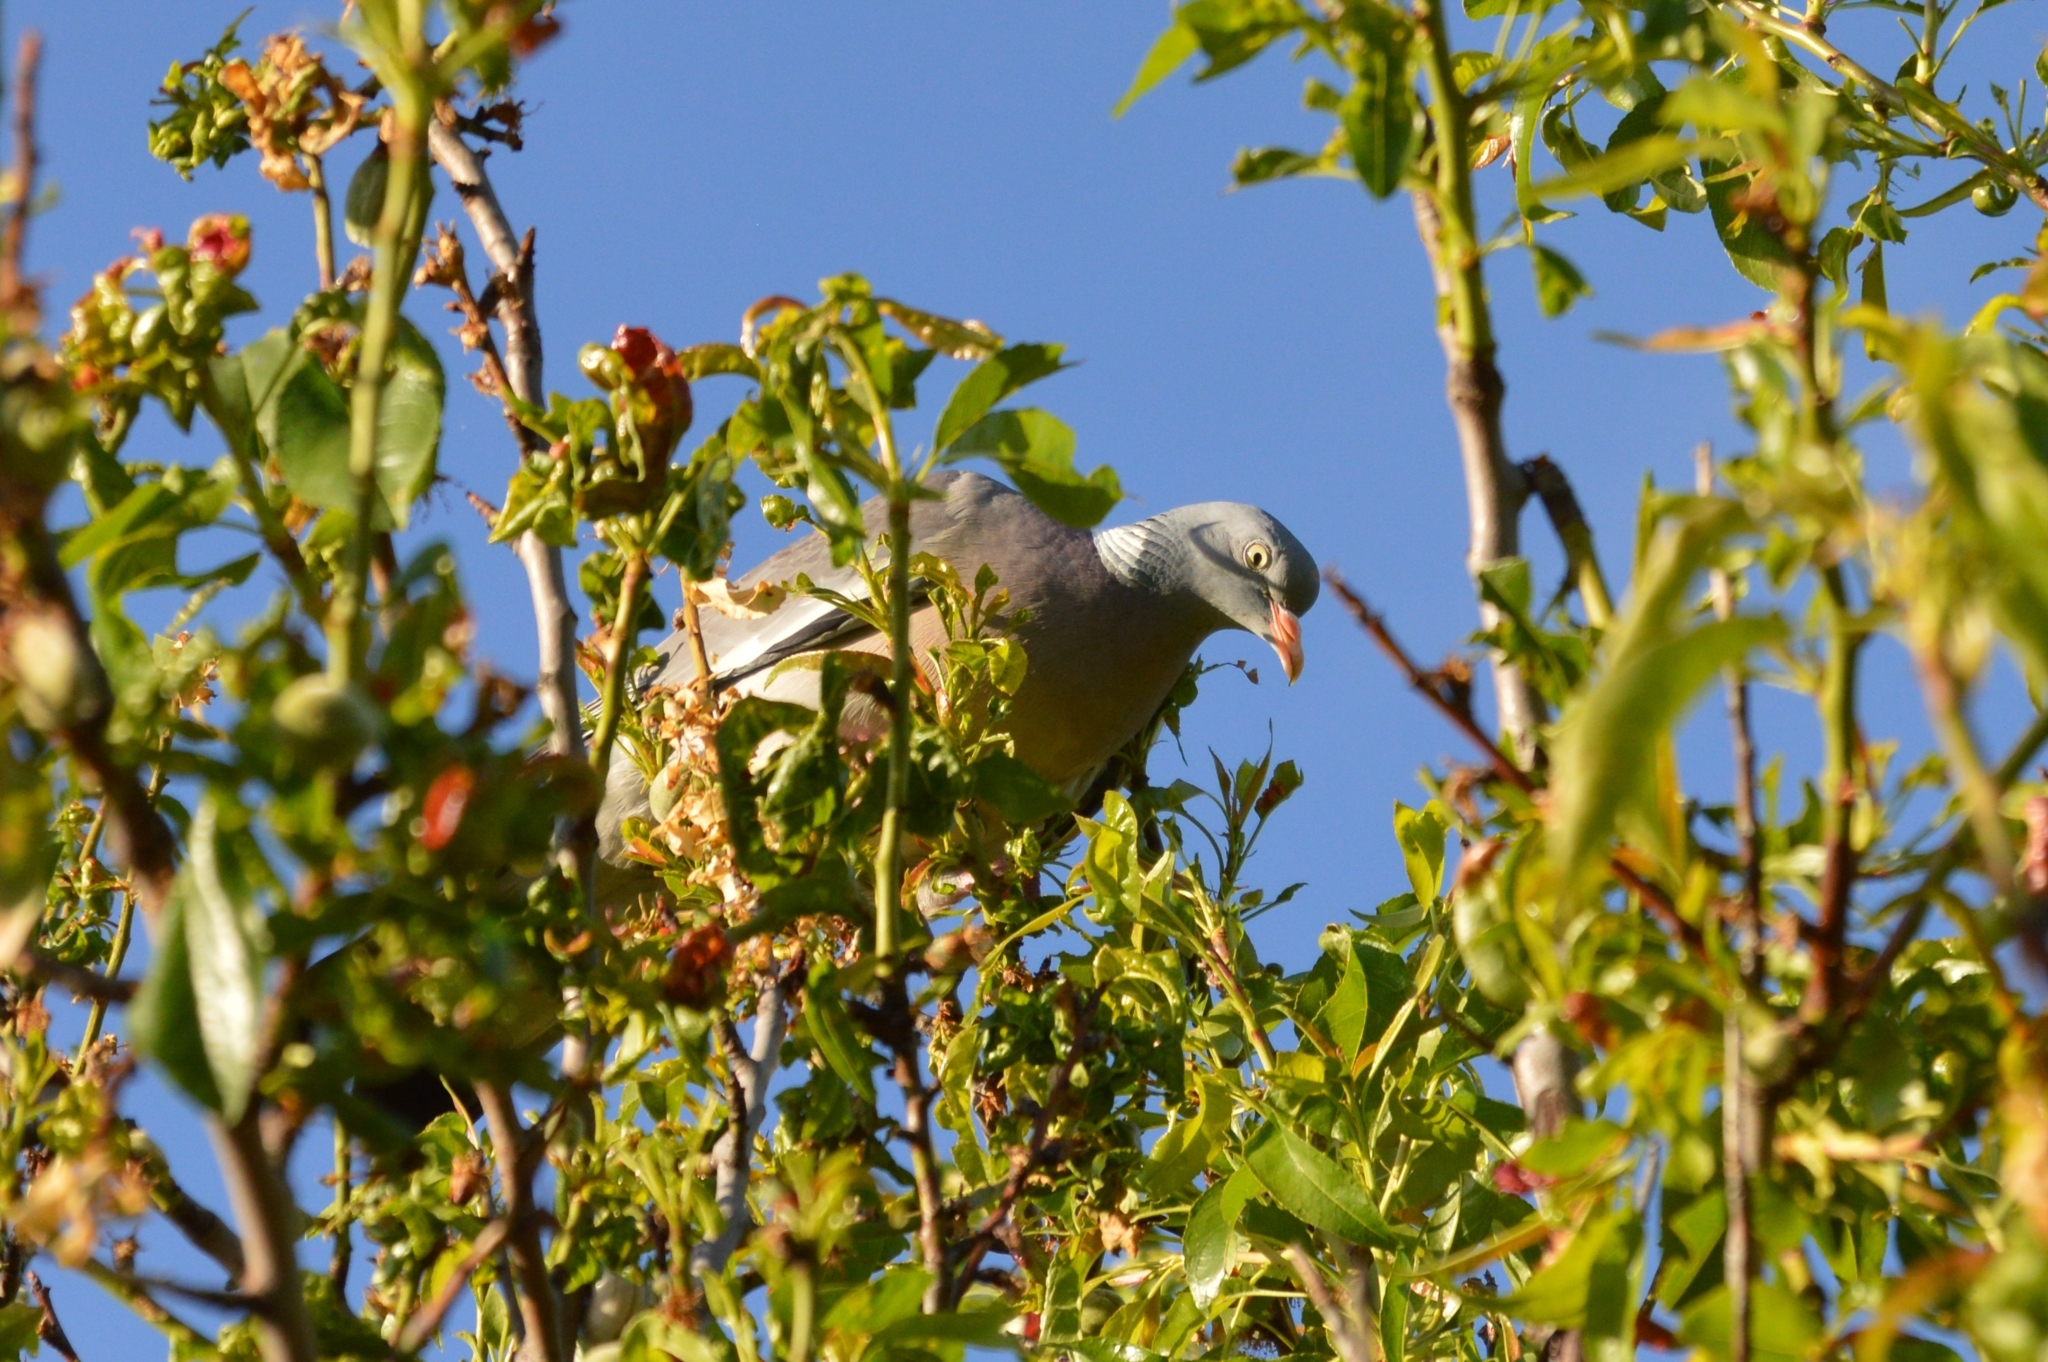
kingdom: Animalia
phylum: Chordata
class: Aves
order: Columbiformes
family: Columbidae
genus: Columba
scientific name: Columba palumbus
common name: Common wood pigeon
